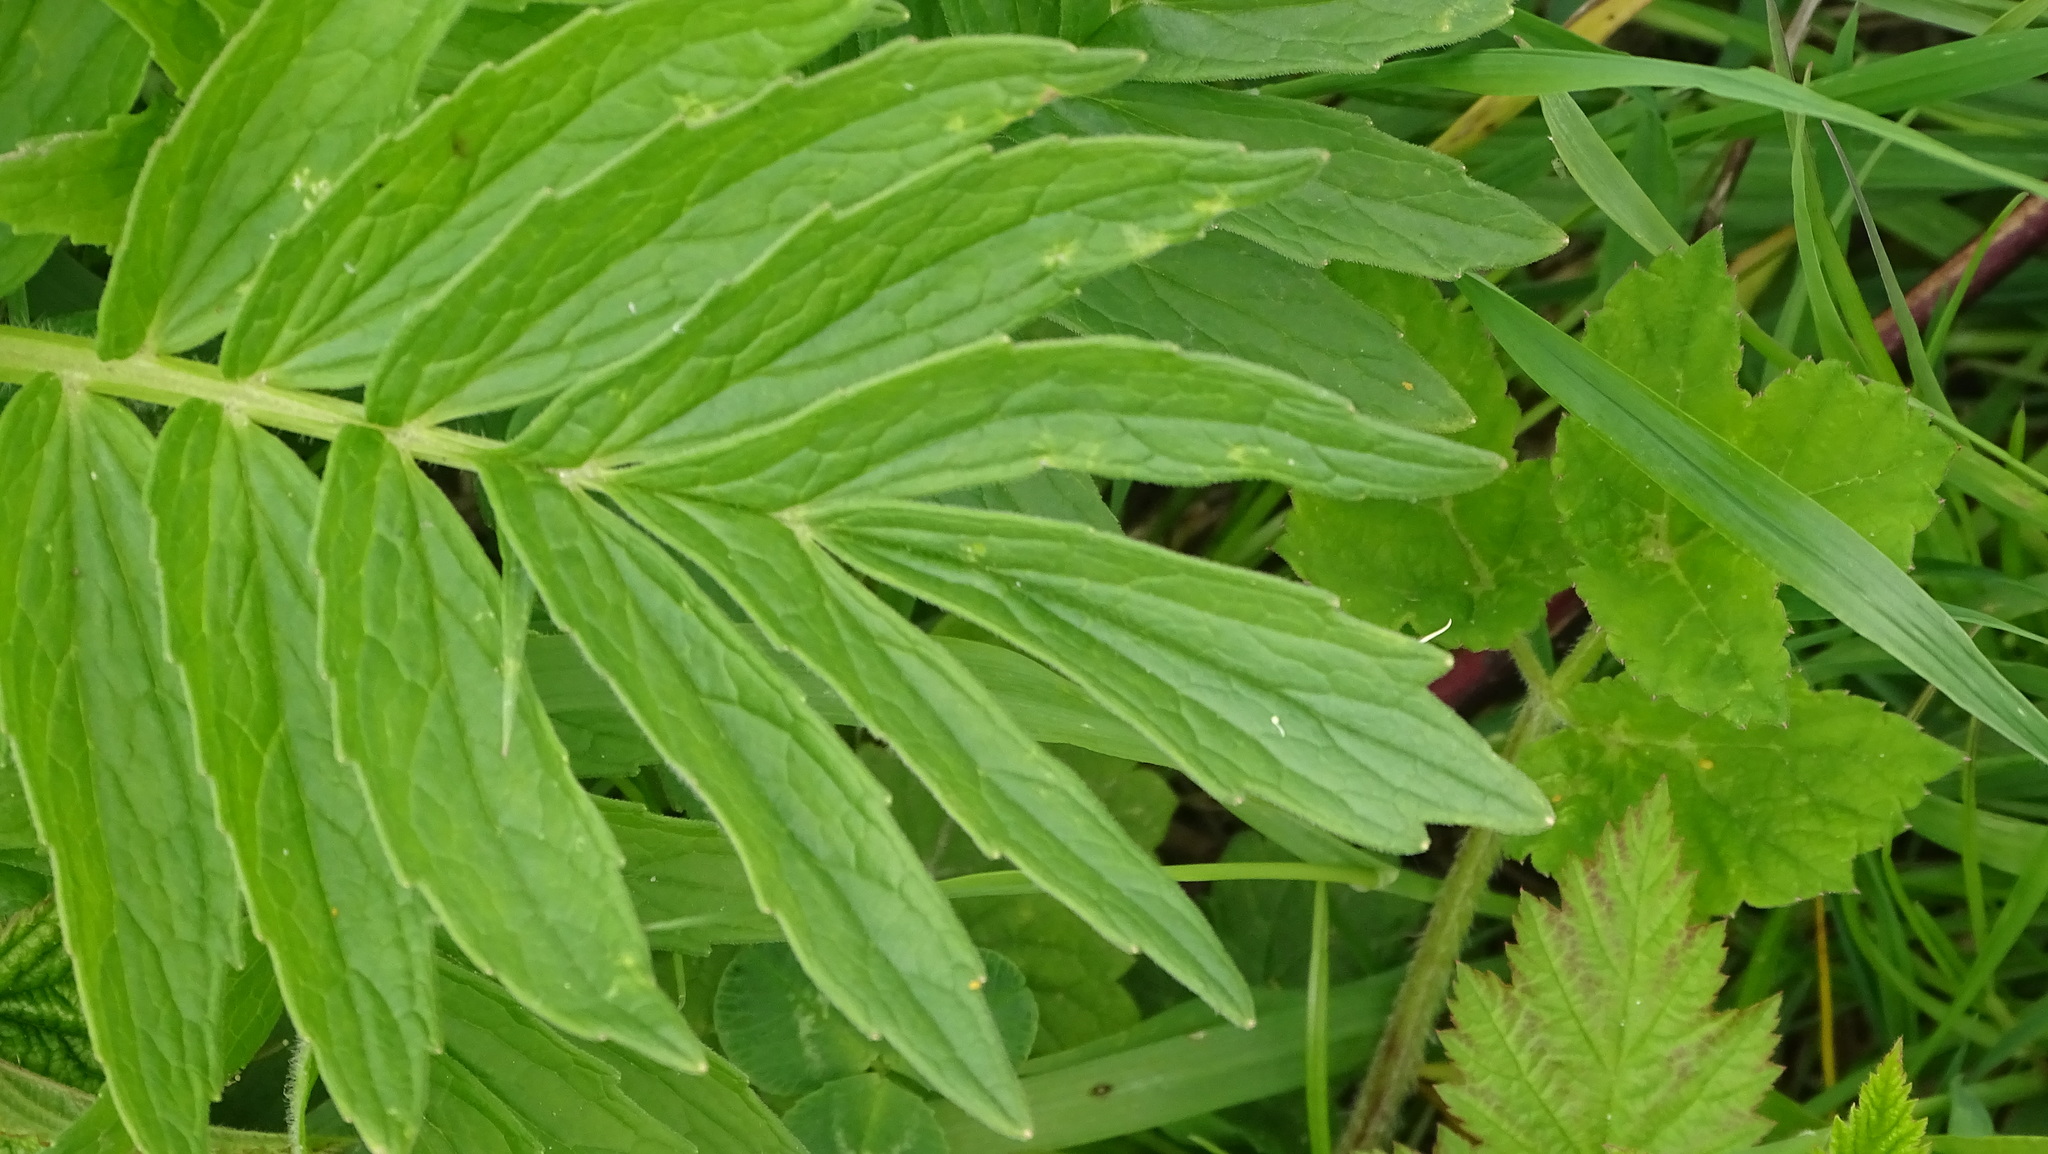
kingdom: Plantae
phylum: Tracheophyta
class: Magnoliopsida
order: Dipsacales
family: Caprifoliaceae
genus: Valeriana
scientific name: Valeriana officinalis
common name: Common valerian
